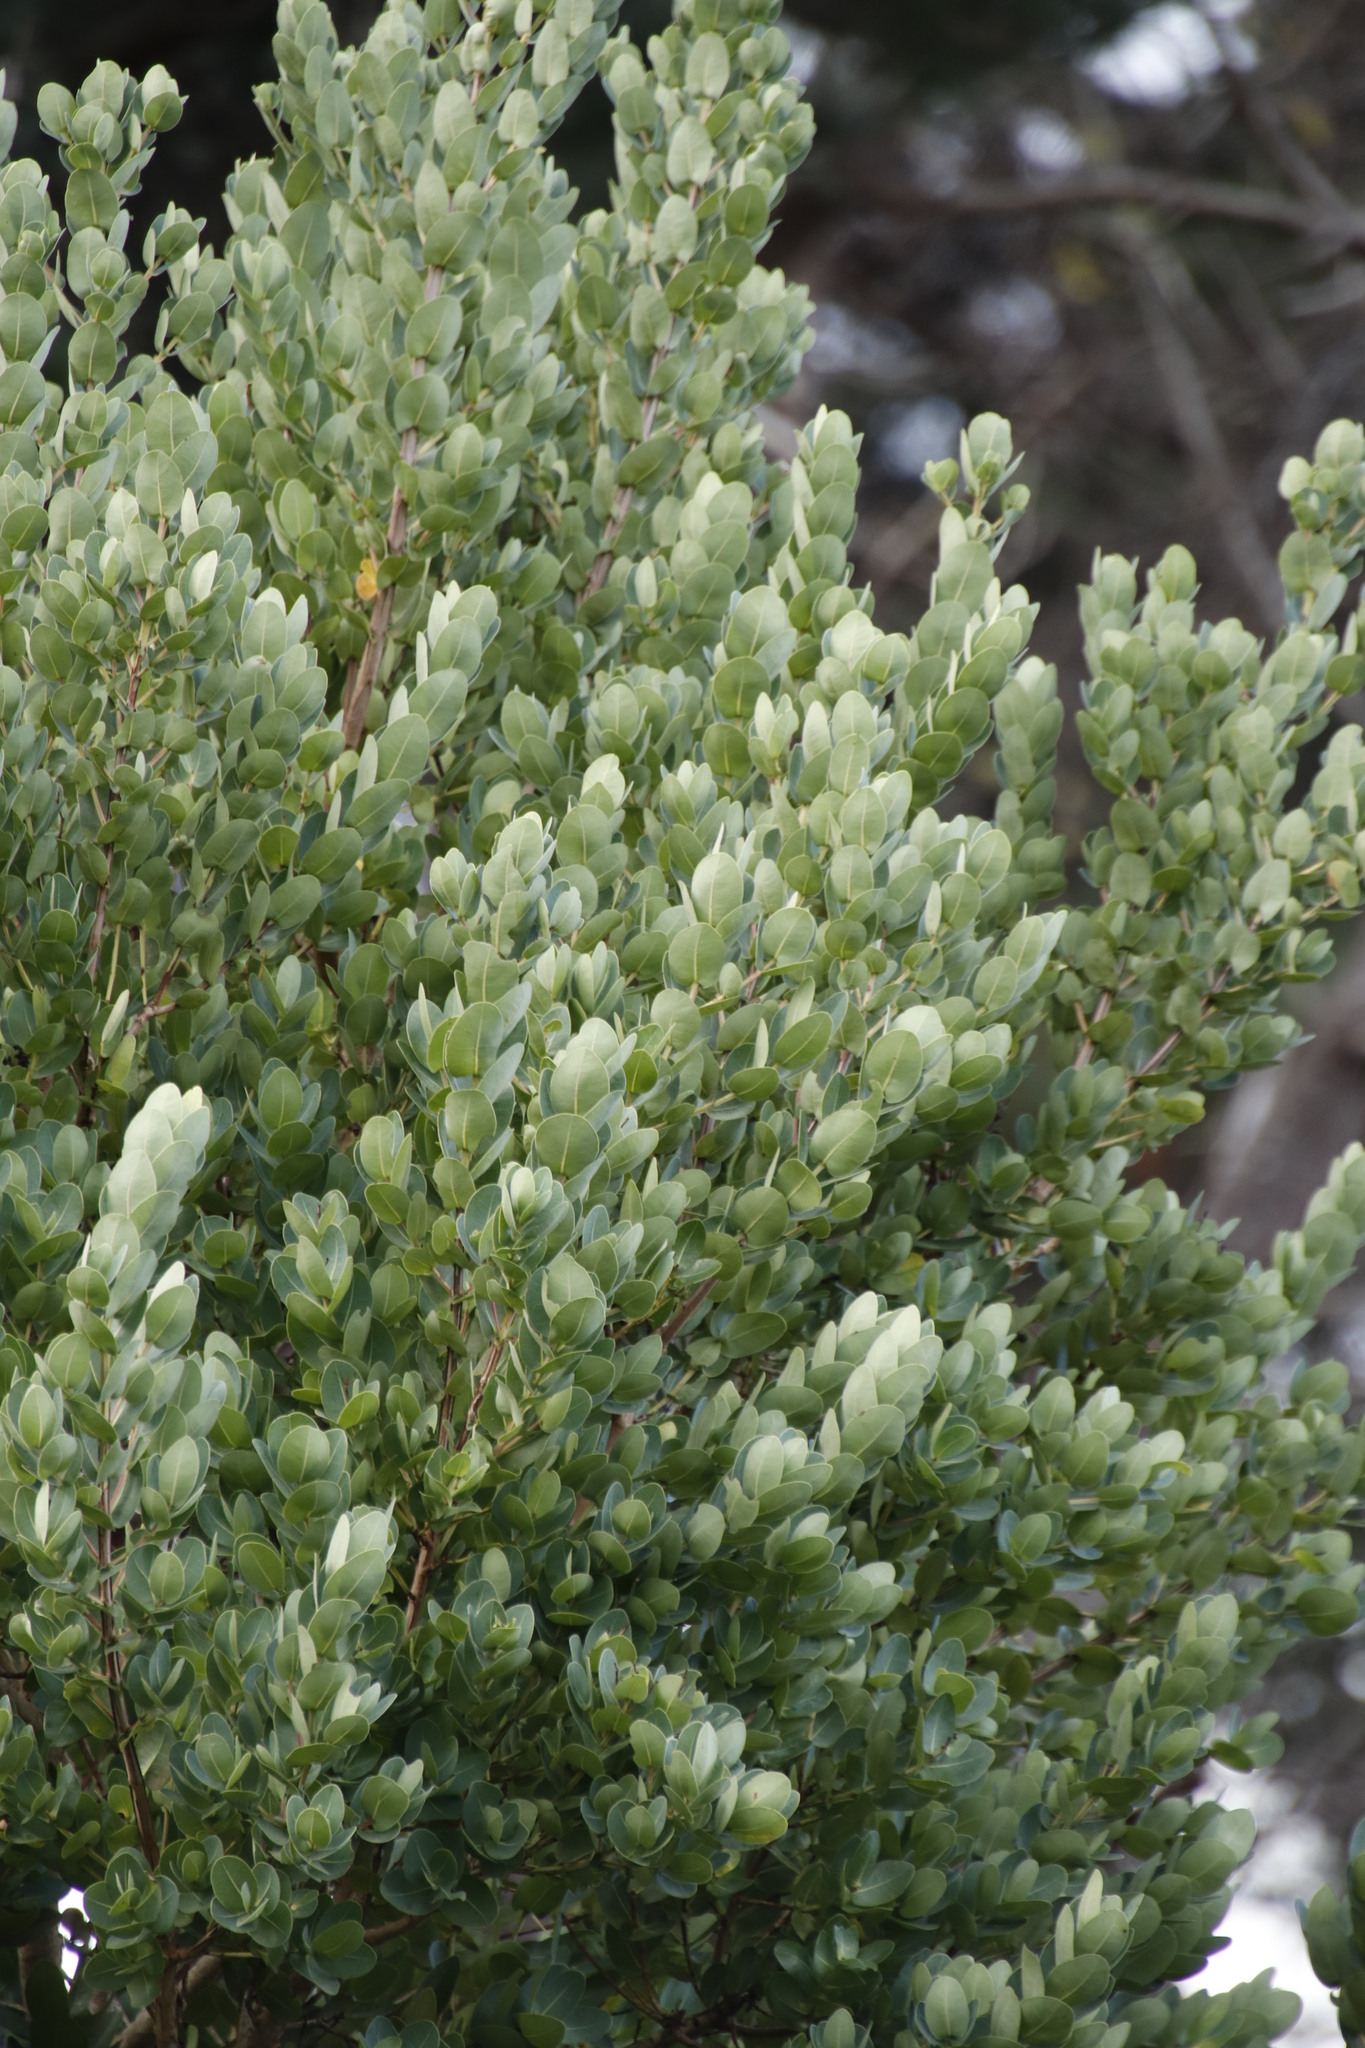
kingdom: Plantae
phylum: Tracheophyta
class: Magnoliopsida
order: Myrtales
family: Myrtaceae
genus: Syzygium
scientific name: Syzygium cordatum
